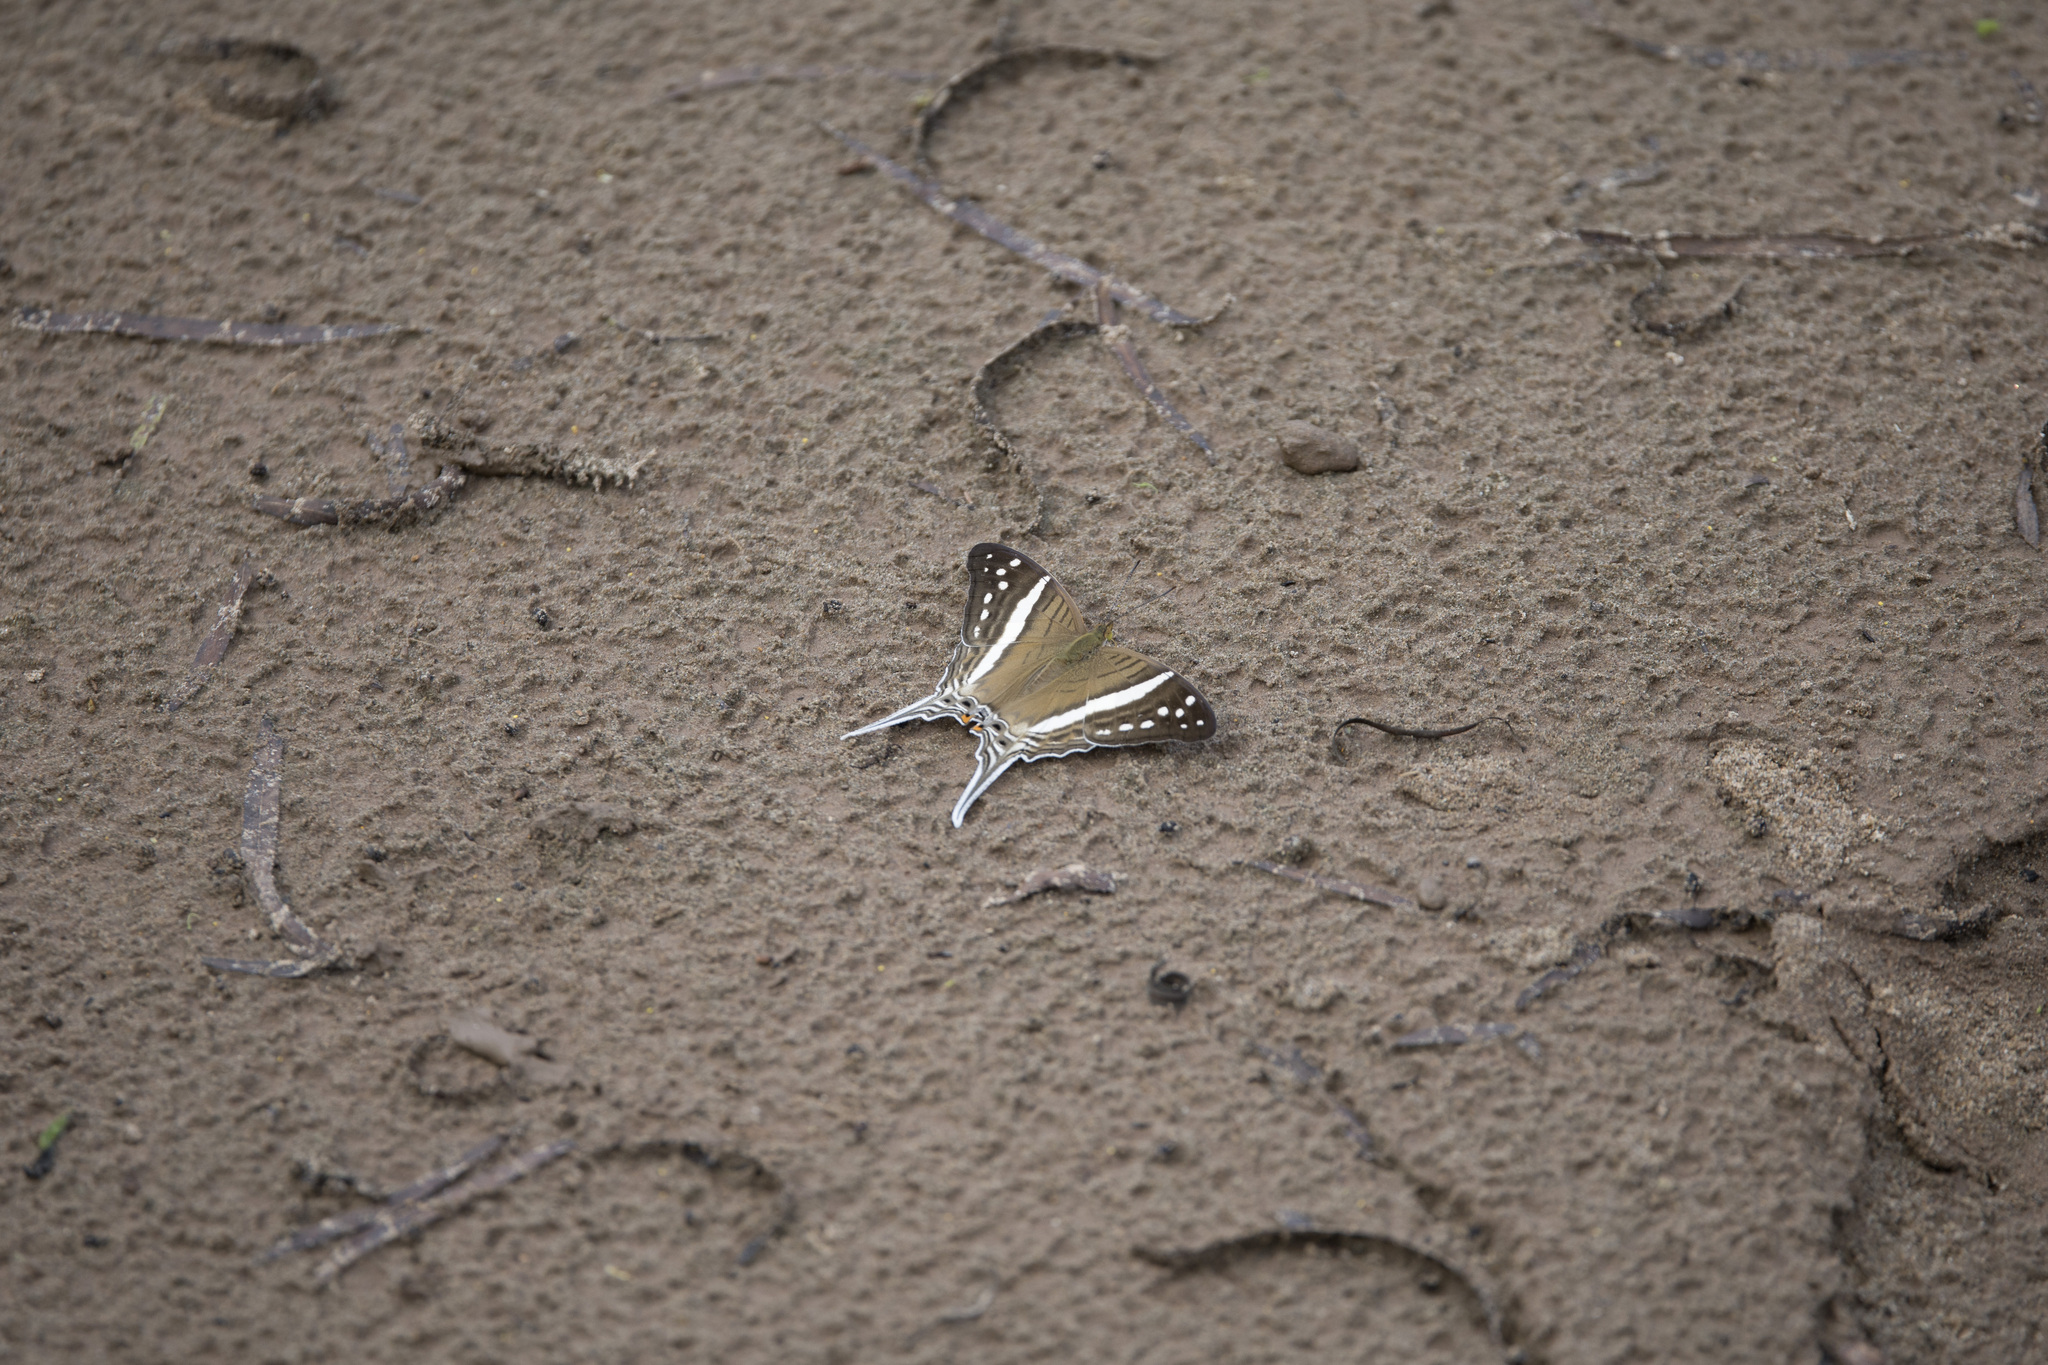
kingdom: Animalia
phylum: Arthropoda
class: Insecta
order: Lepidoptera
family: Nymphalidae
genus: Marpesia
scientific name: Marpesia crethon
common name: Crethon daggerwing
